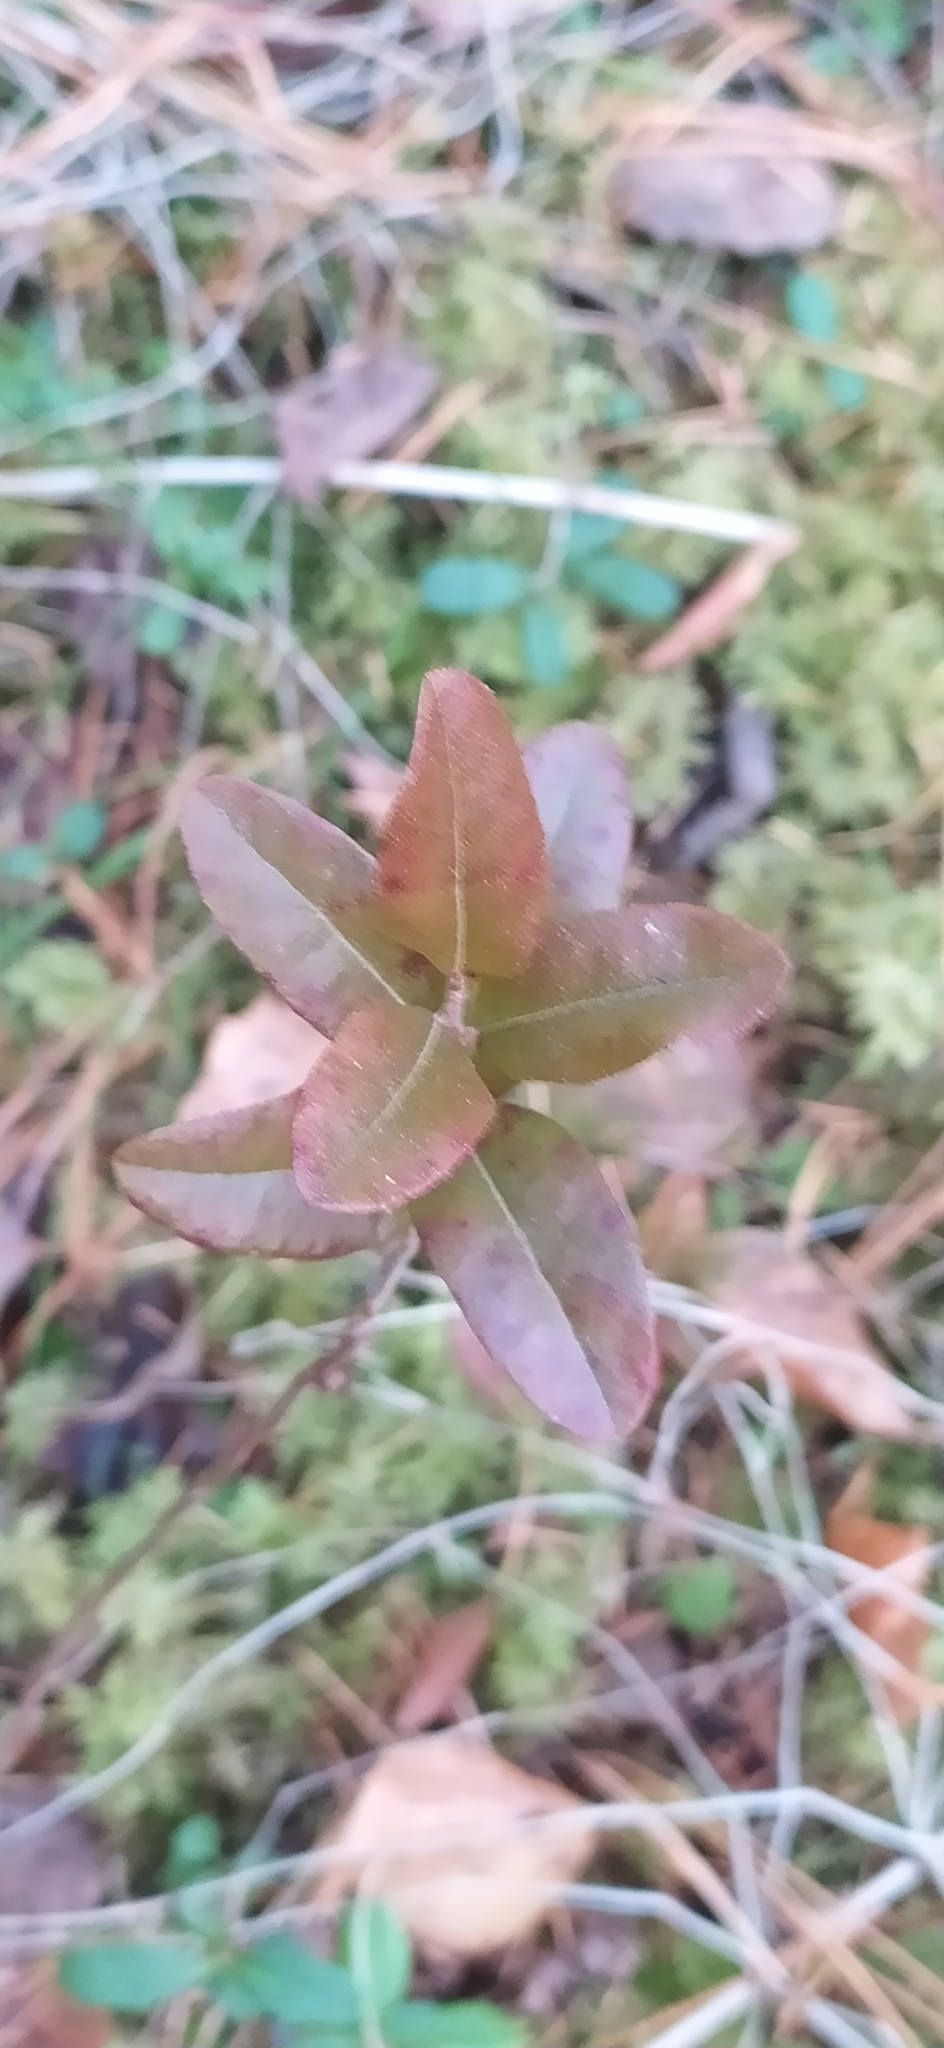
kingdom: Plantae
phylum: Tracheophyta
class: Magnoliopsida
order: Ericales
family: Ericaceae
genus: Chamaedaphne
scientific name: Chamaedaphne calyculata
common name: Leatherleaf
